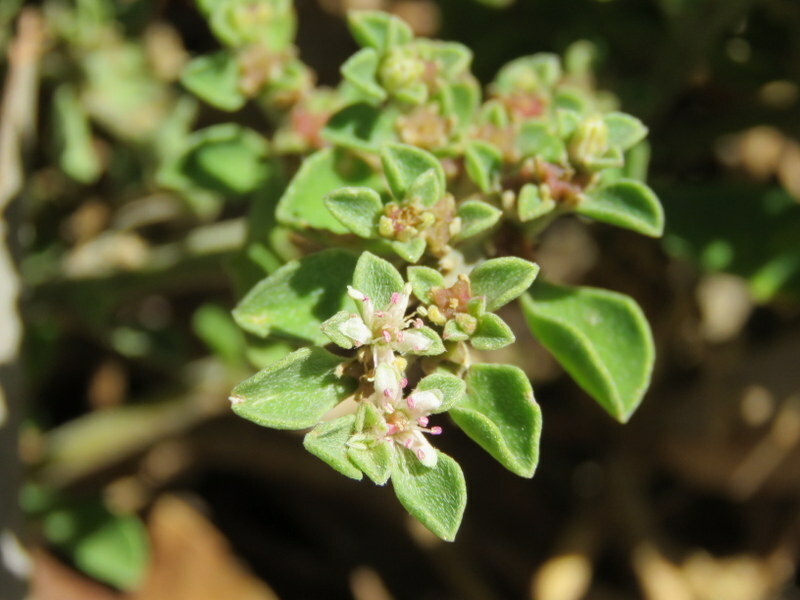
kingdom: Plantae
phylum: Tracheophyta
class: Magnoliopsida
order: Caryophyllales
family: Aizoaceae
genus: Aizoon
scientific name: Aizoon pubescens
